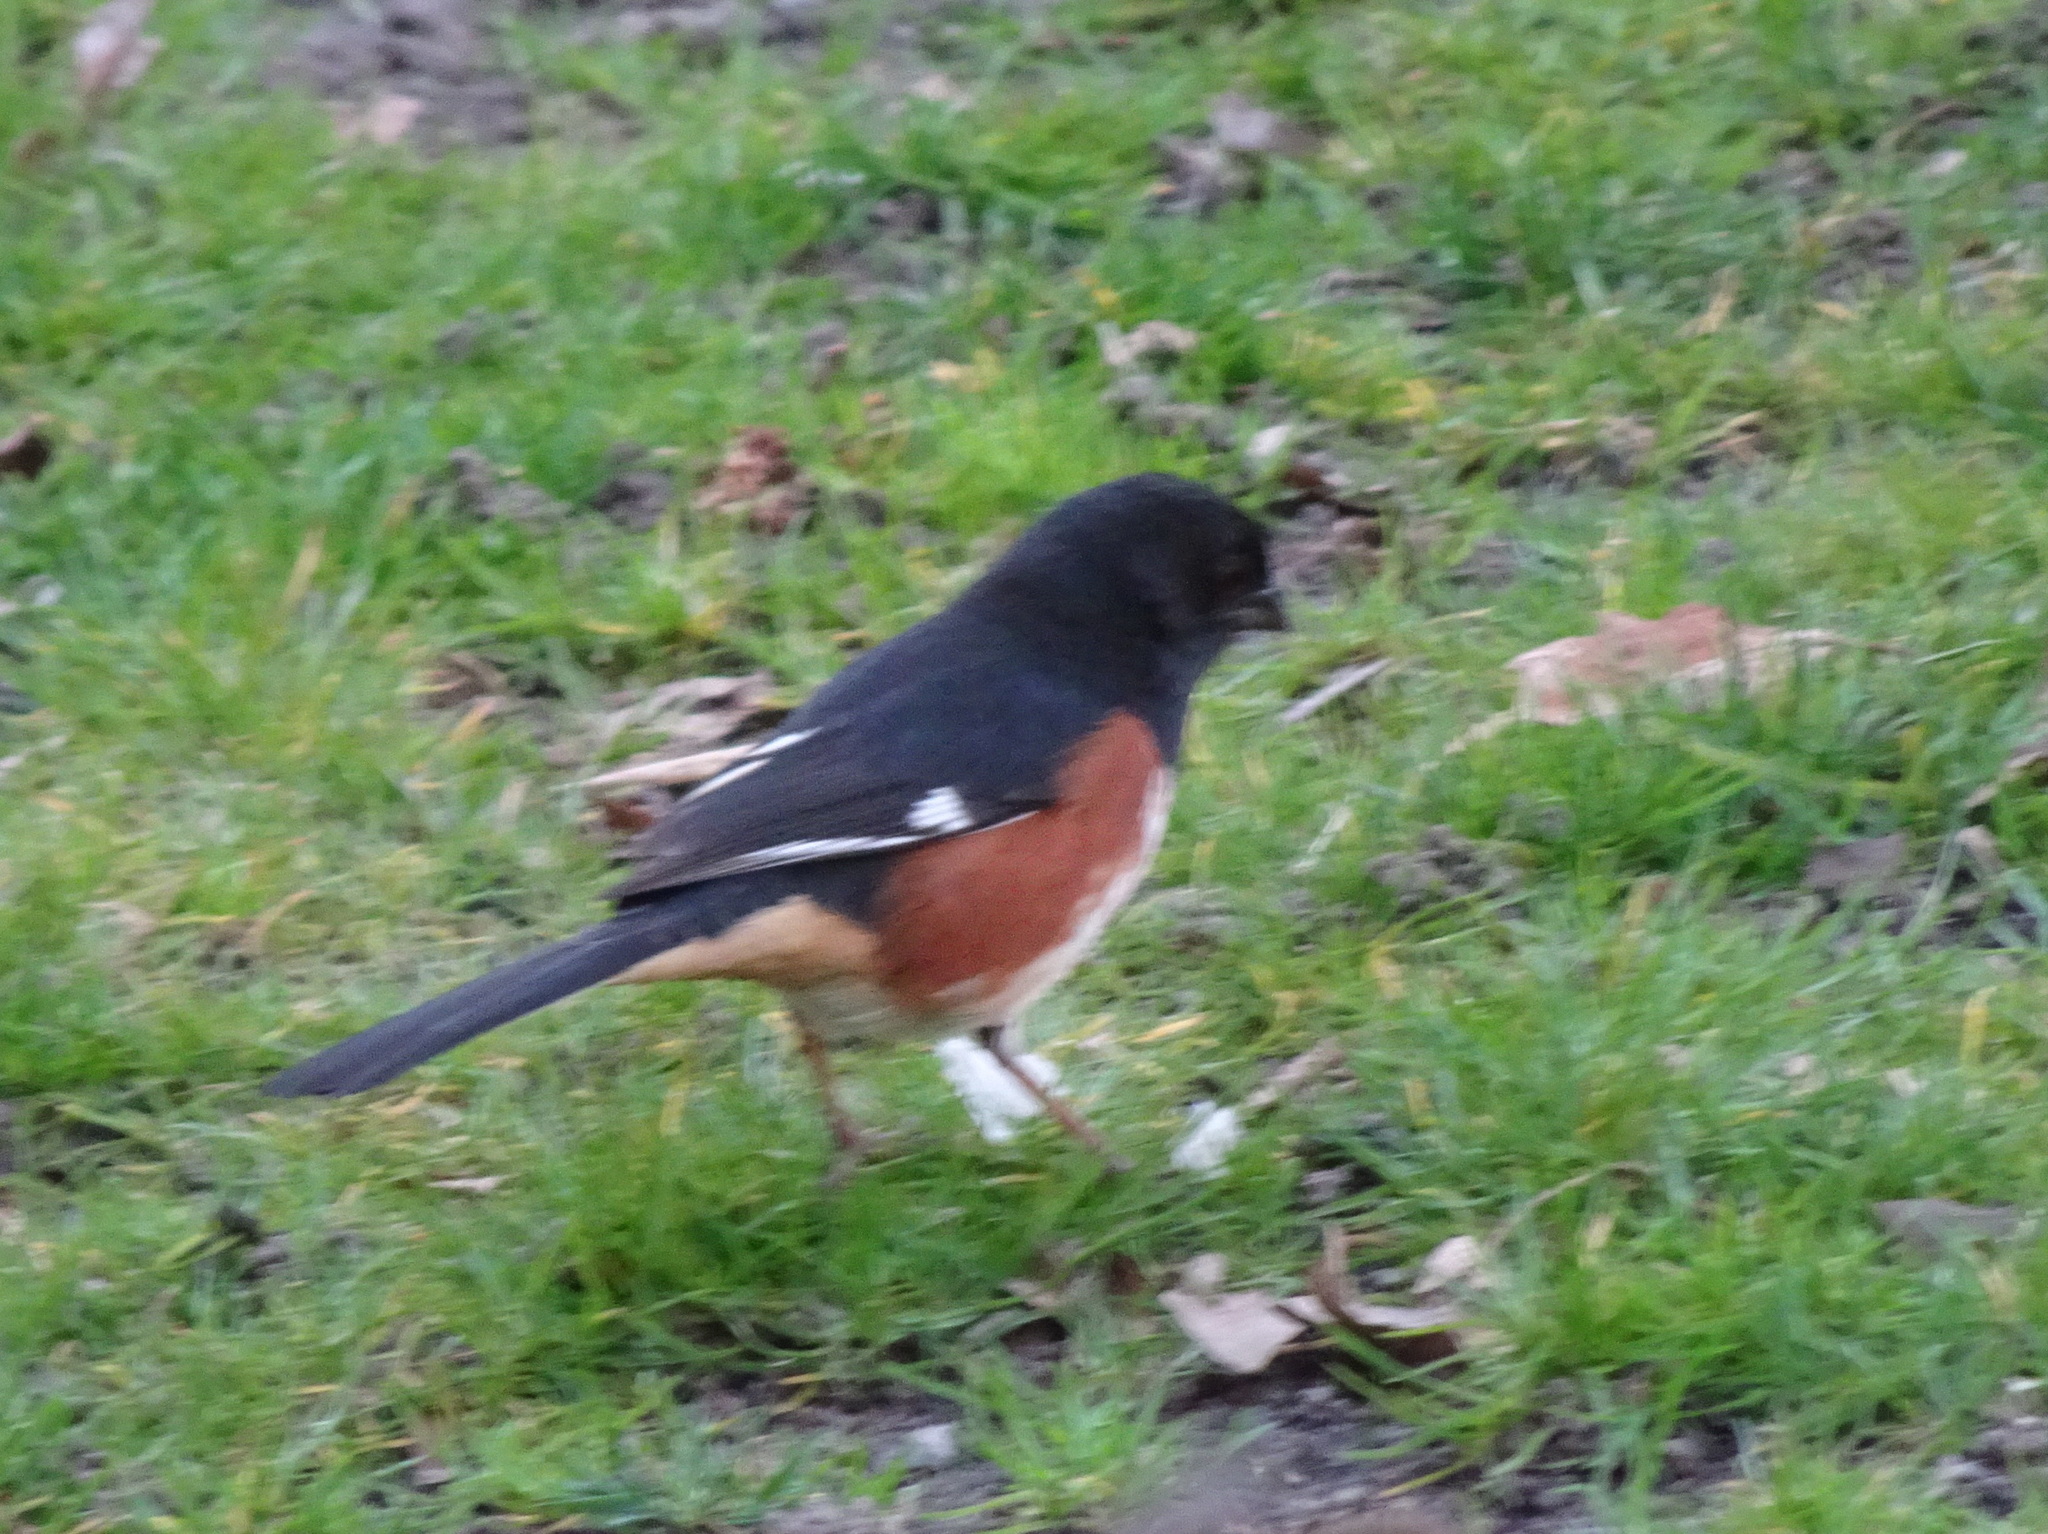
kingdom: Animalia
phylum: Chordata
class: Aves
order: Passeriformes
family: Passerellidae
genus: Pipilo
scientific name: Pipilo erythrophthalmus
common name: Eastern towhee
